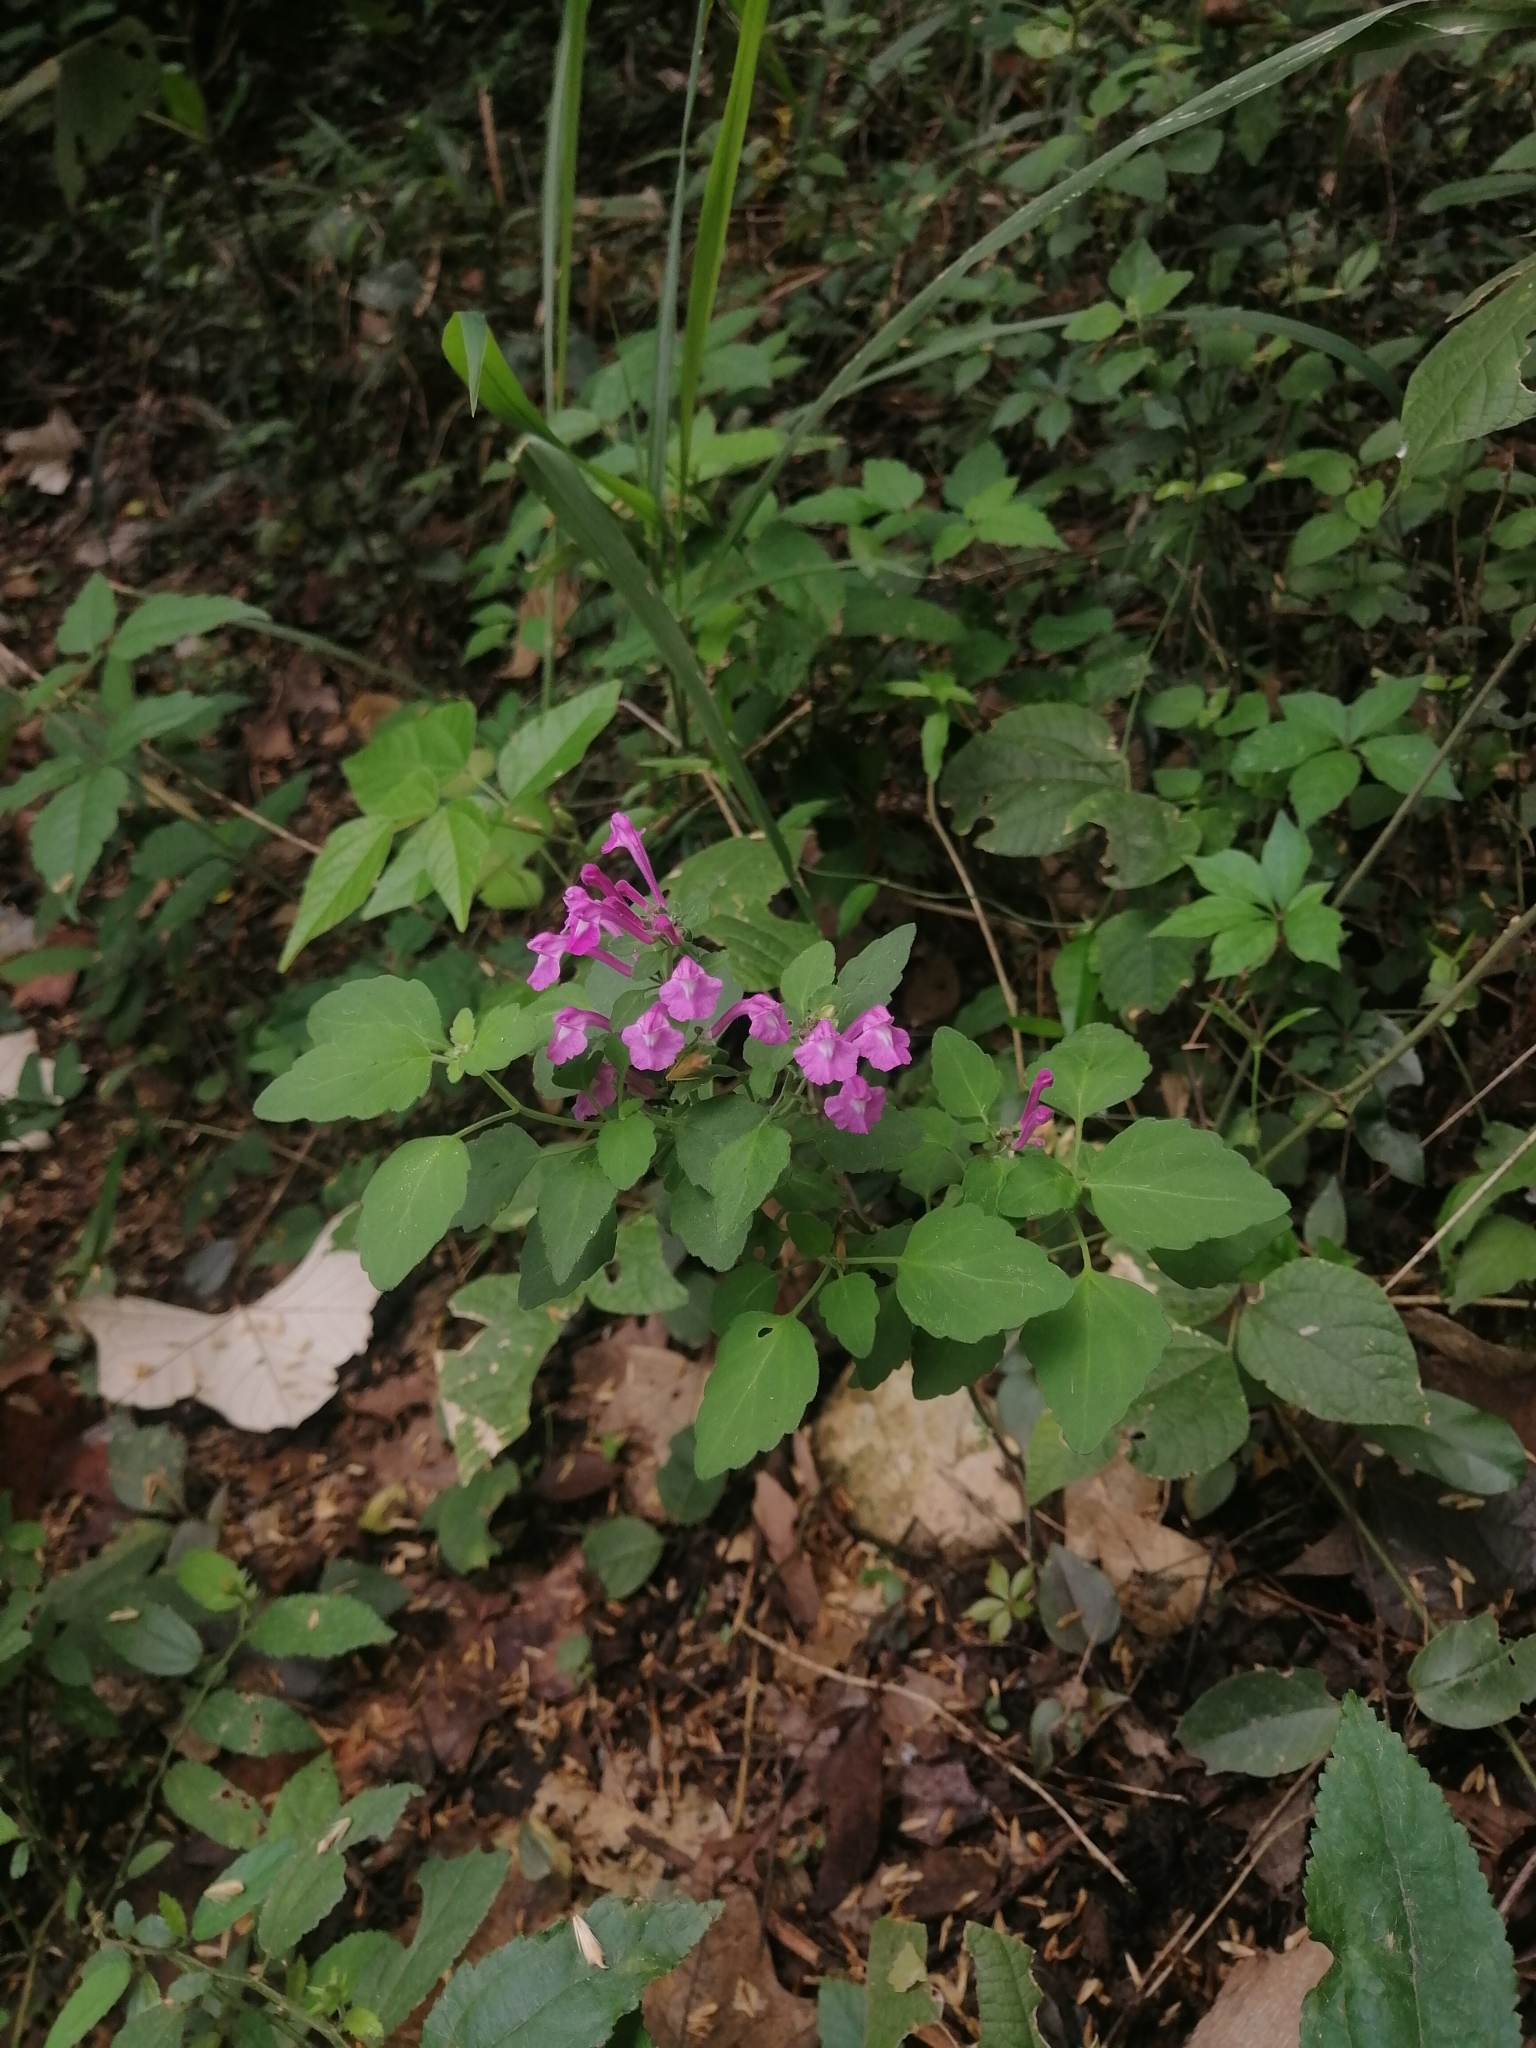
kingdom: Plantae
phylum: Tracheophyta
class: Magnoliopsida
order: Lamiales
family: Lamiaceae
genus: Scutellaria
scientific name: Scutellaria seleriana
